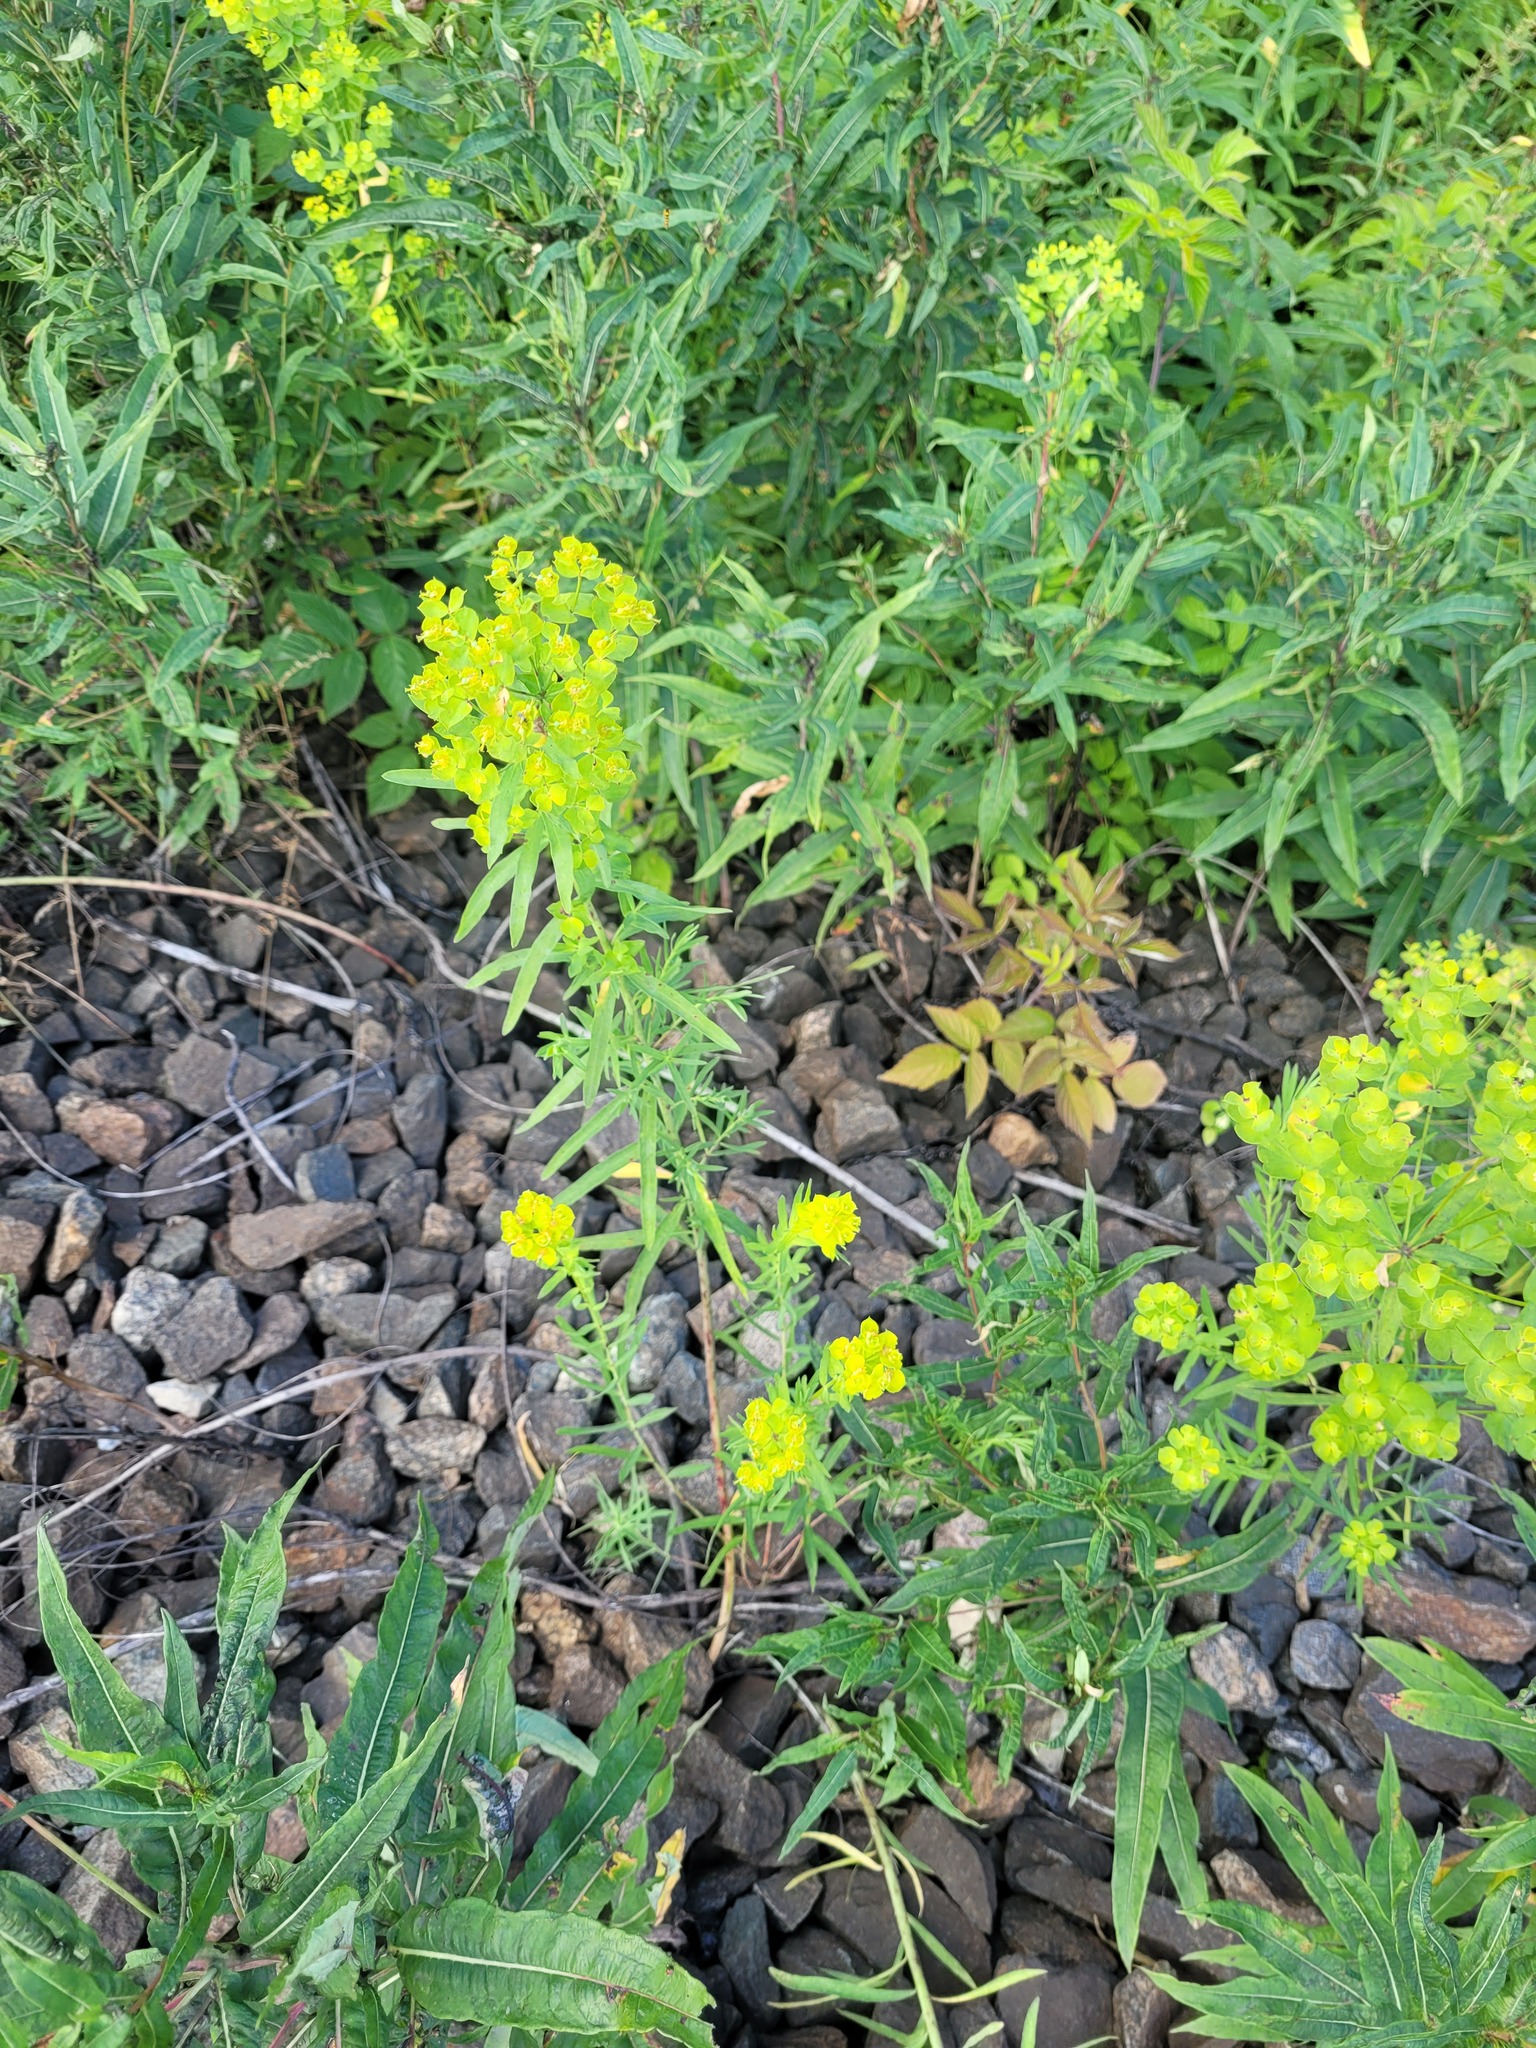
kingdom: Plantae
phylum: Tracheophyta
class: Magnoliopsida
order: Malpighiales
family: Euphorbiaceae
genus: Euphorbia
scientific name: Euphorbia virgata
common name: Leafy spurge
